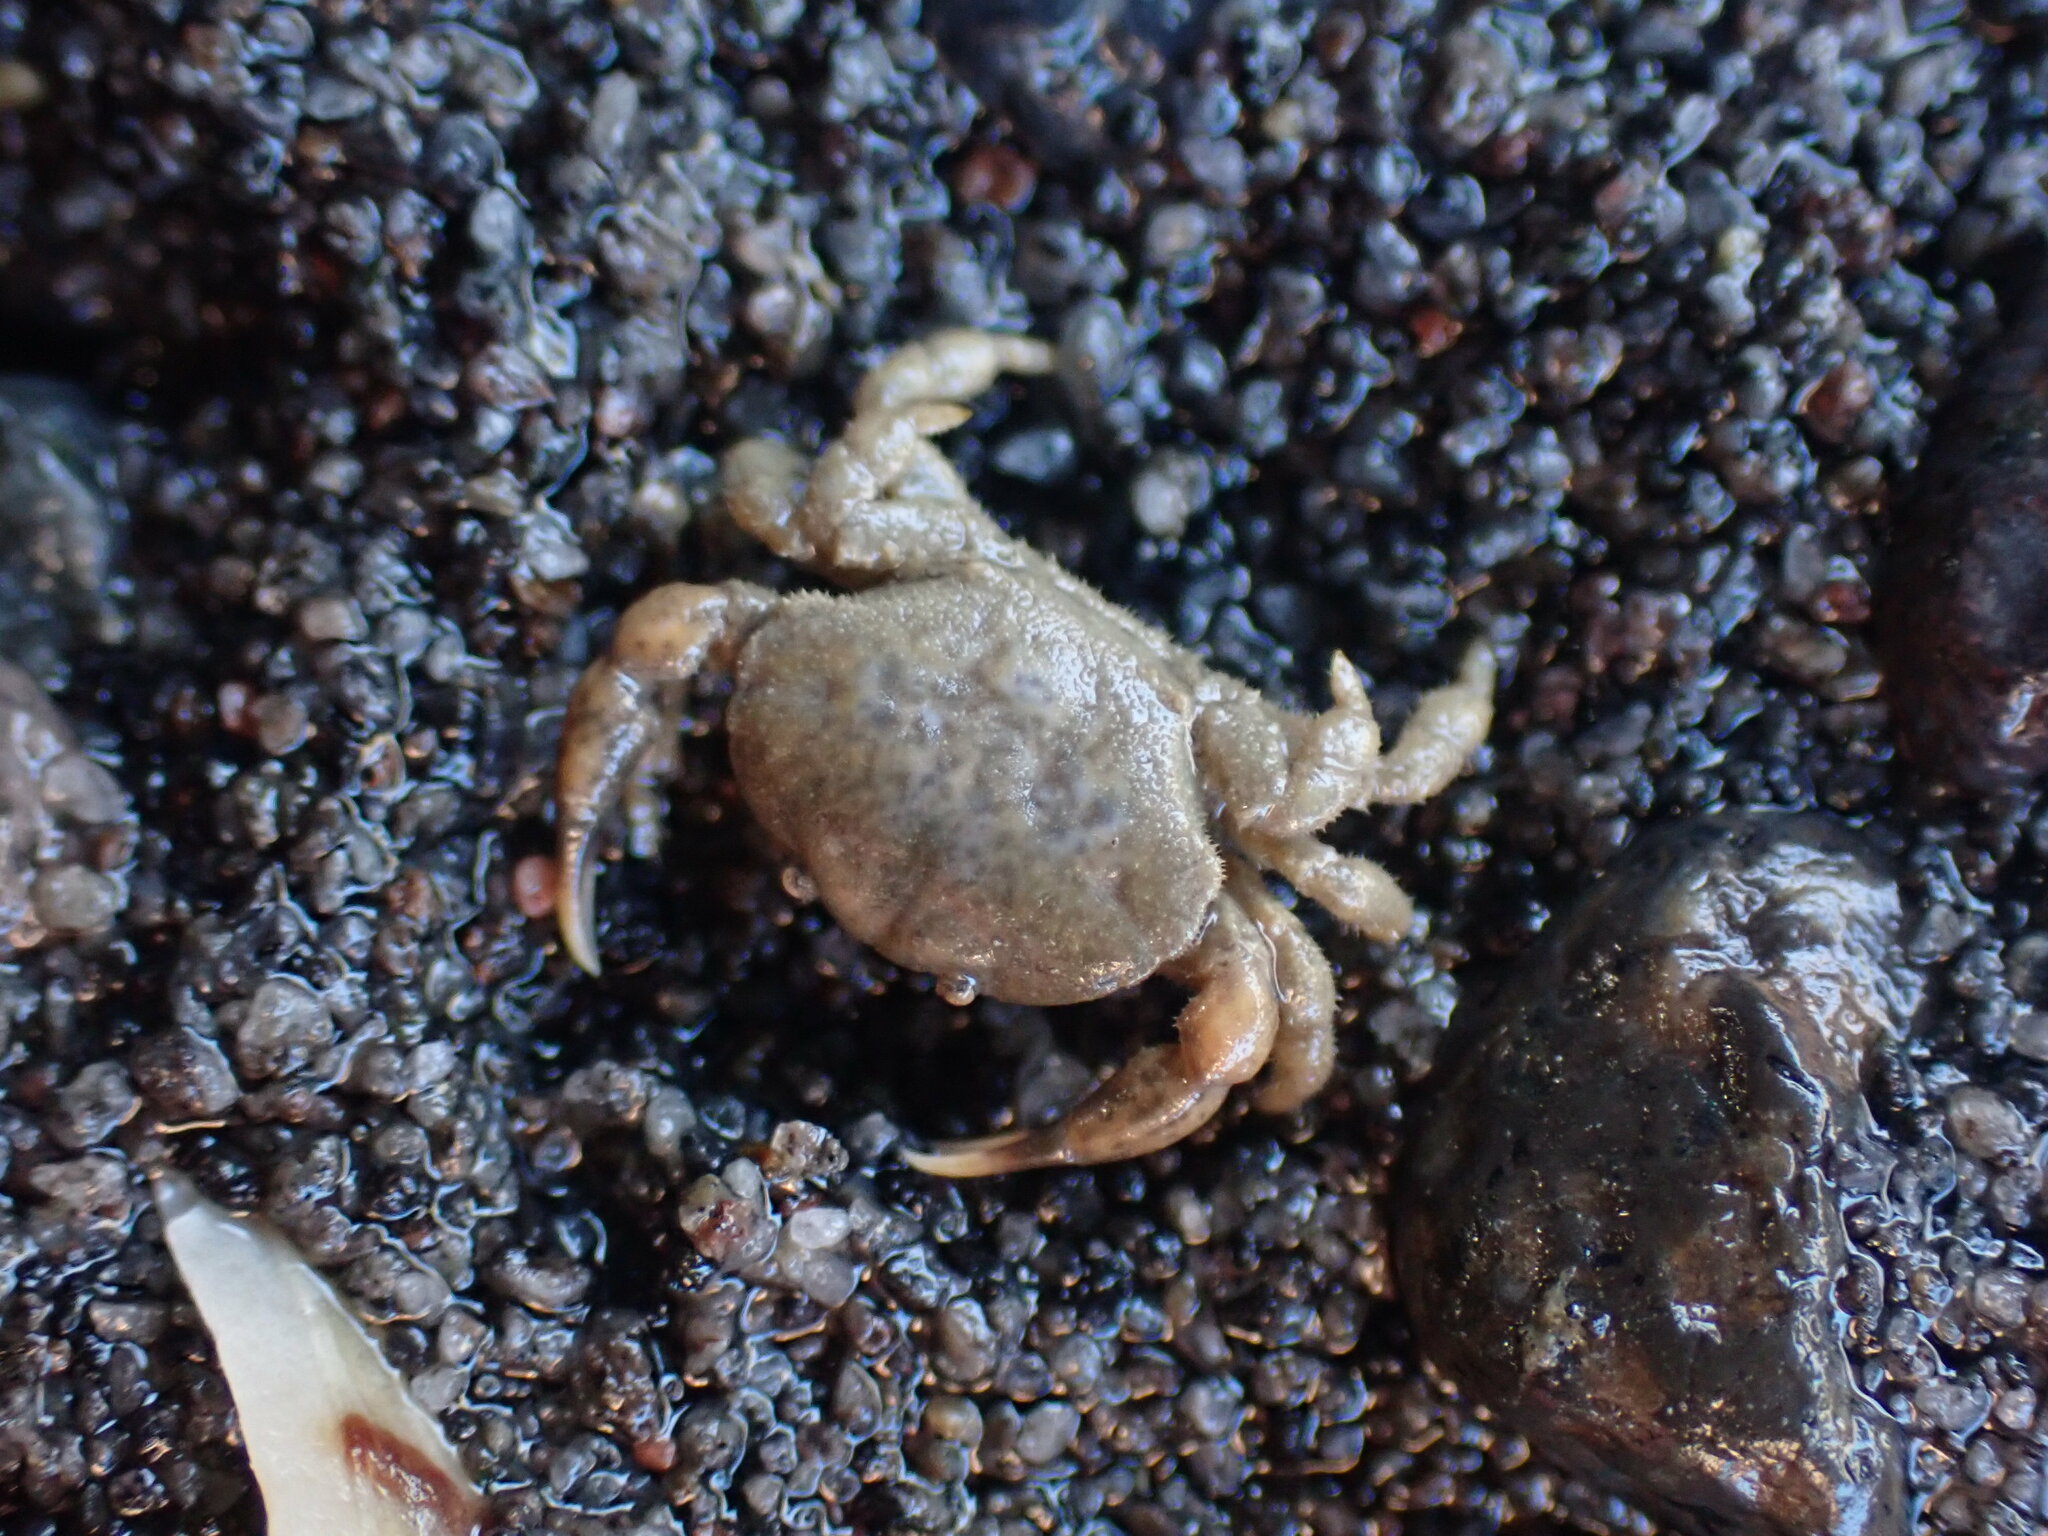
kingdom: Animalia
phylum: Arthropoda
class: Malacostraca
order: Decapoda
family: Heteroziidae
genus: Heterozius
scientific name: Heterozius rotundifrons
